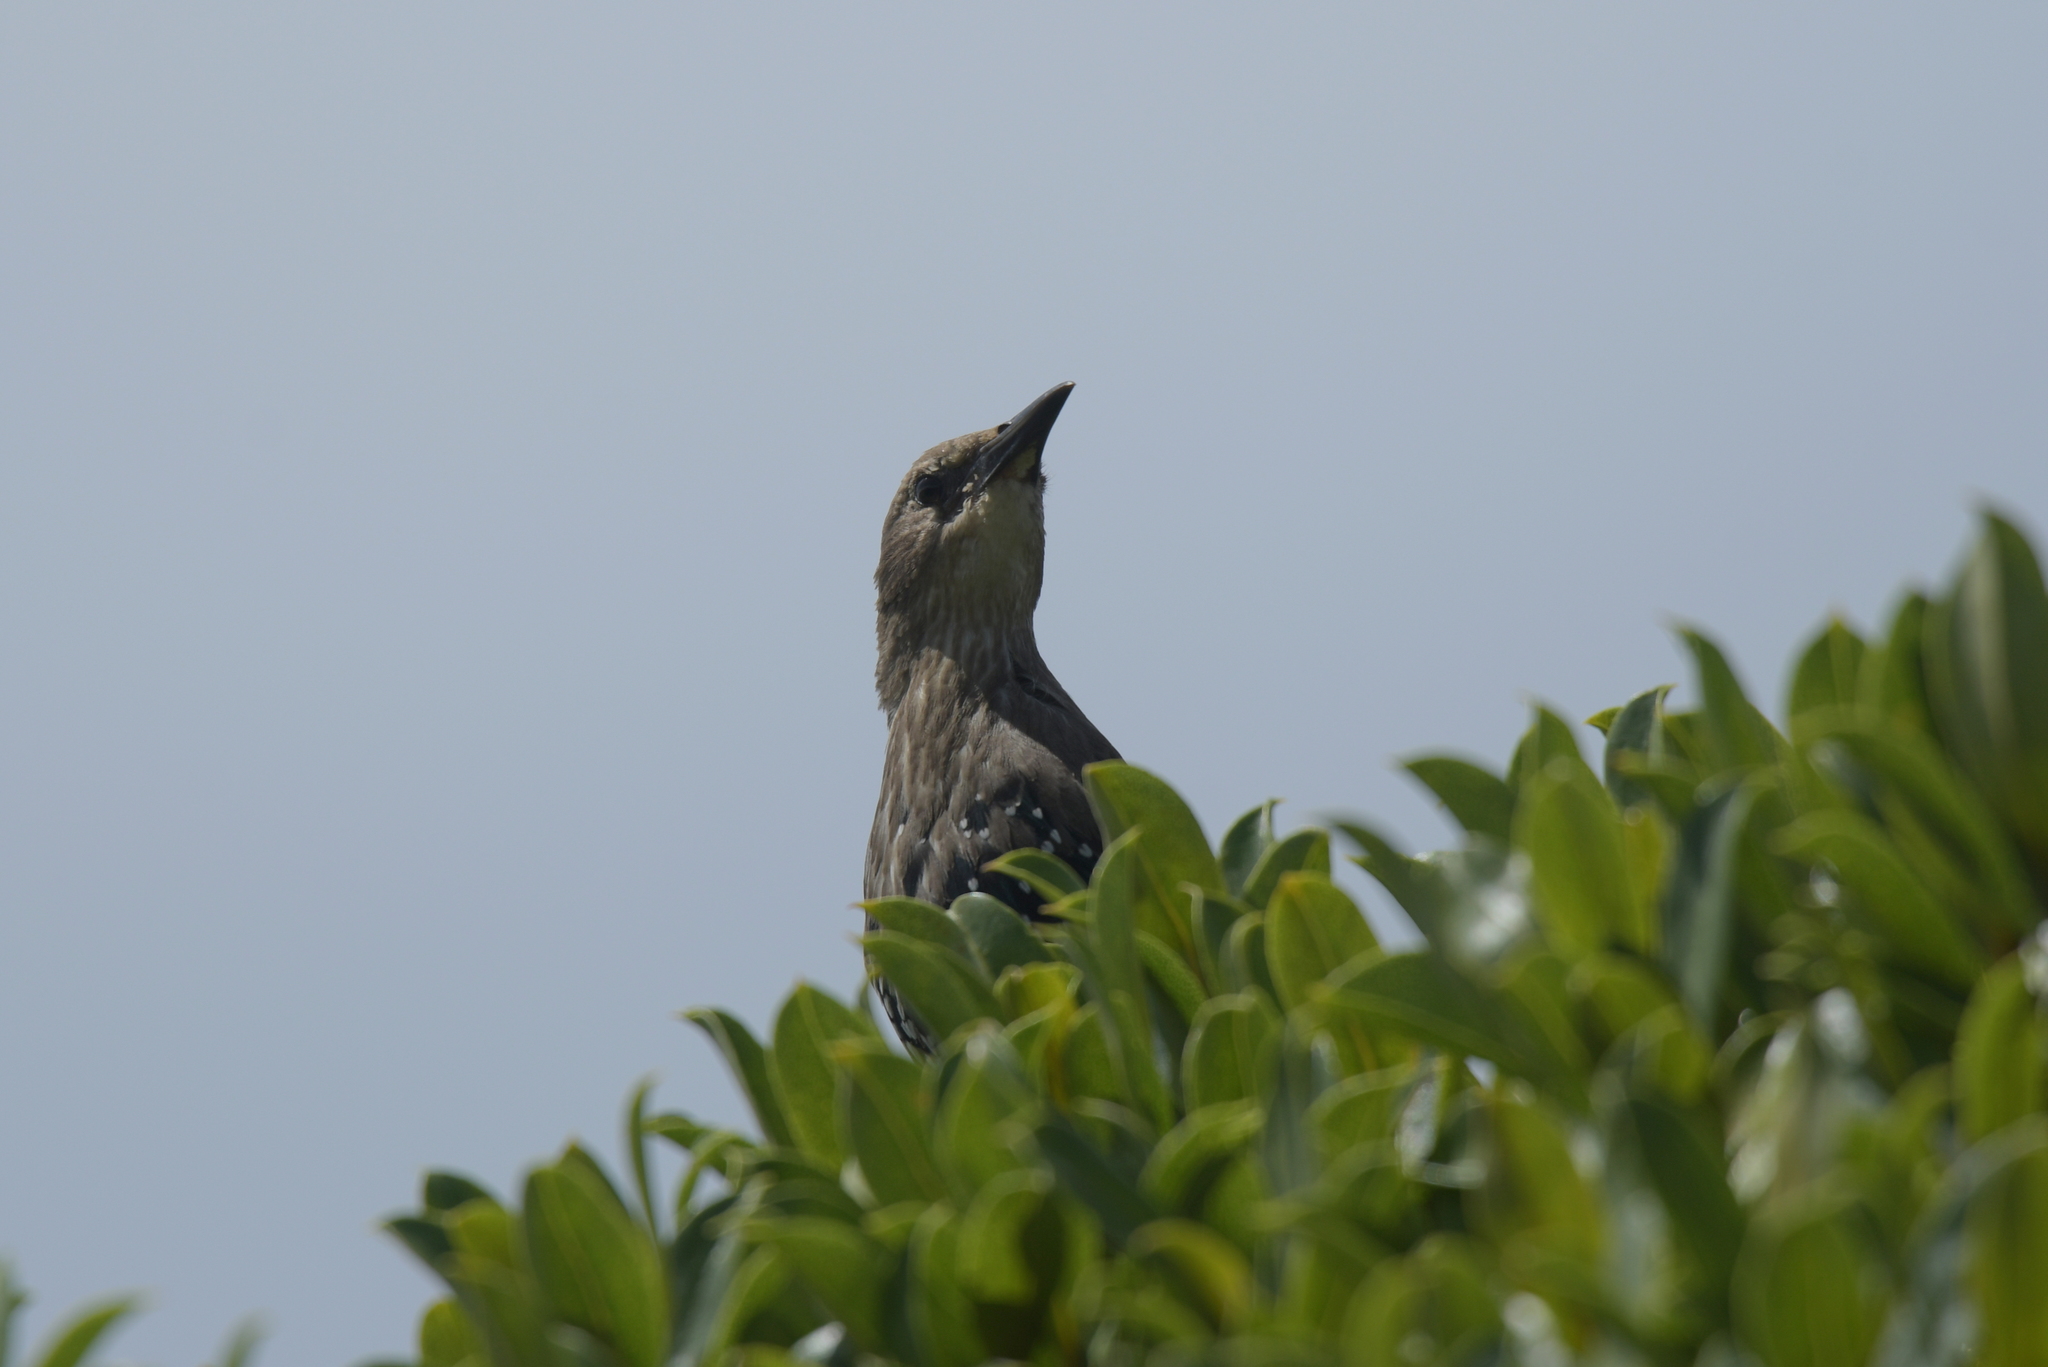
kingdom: Animalia
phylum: Chordata
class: Aves
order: Passeriformes
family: Sturnidae
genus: Sturnus
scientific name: Sturnus vulgaris
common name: Common starling
